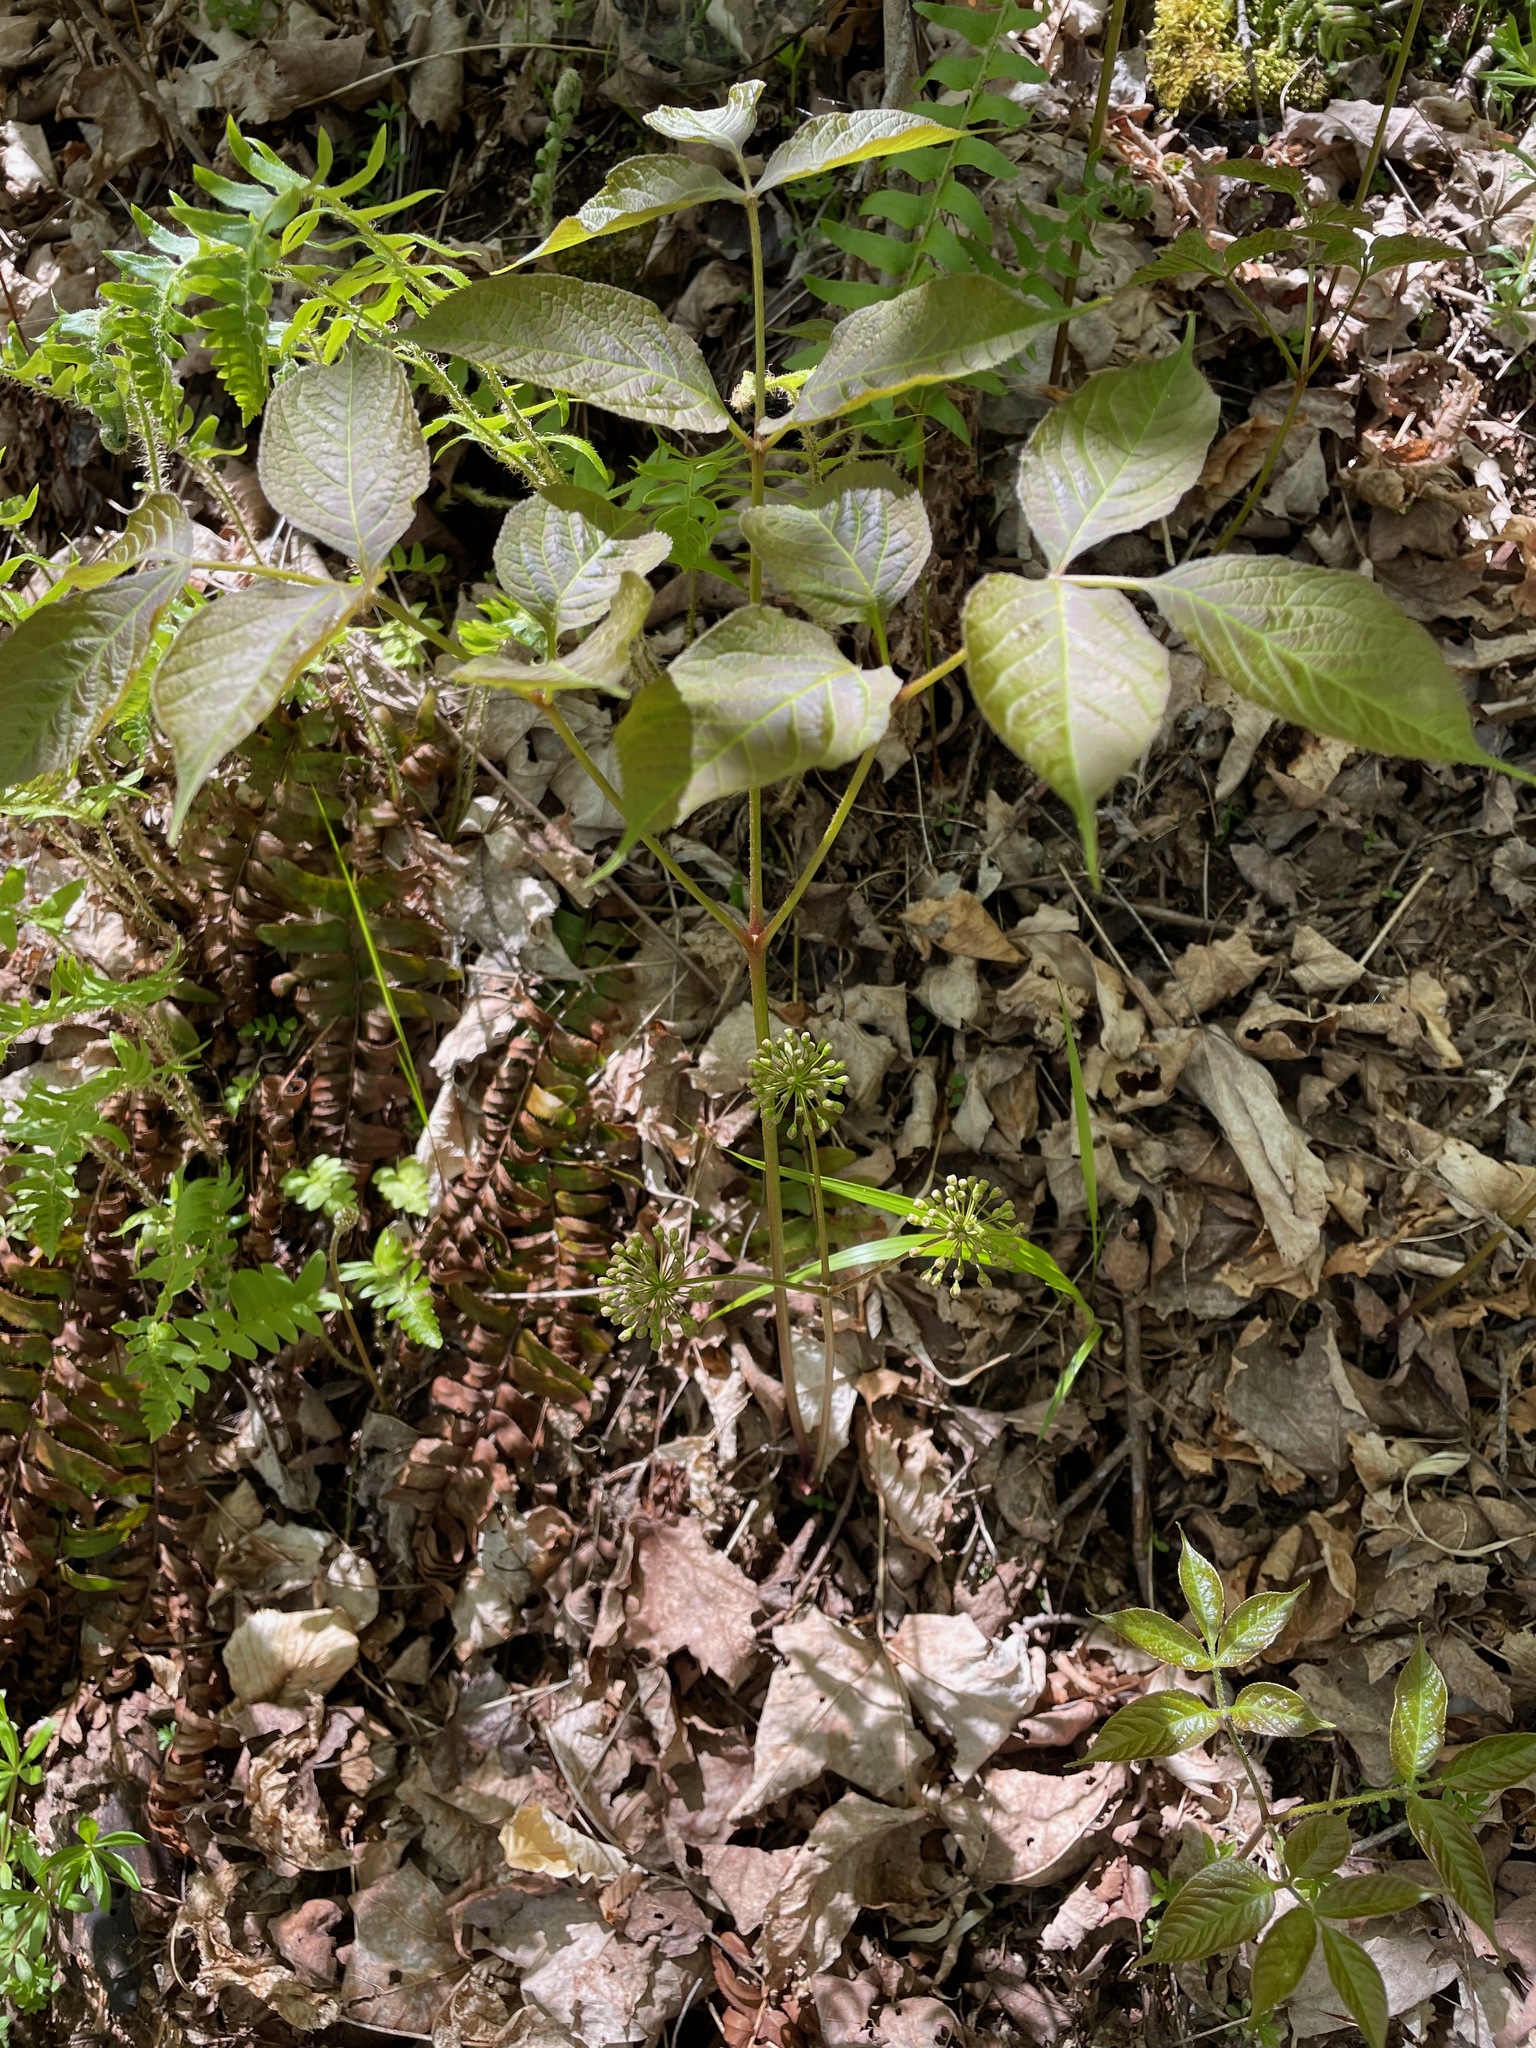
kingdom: Plantae
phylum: Tracheophyta
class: Magnoliopsida
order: Apiales
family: Araliaceae
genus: Aralia
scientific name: Aralia nudicaulis
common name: Wild sarsaparilla
